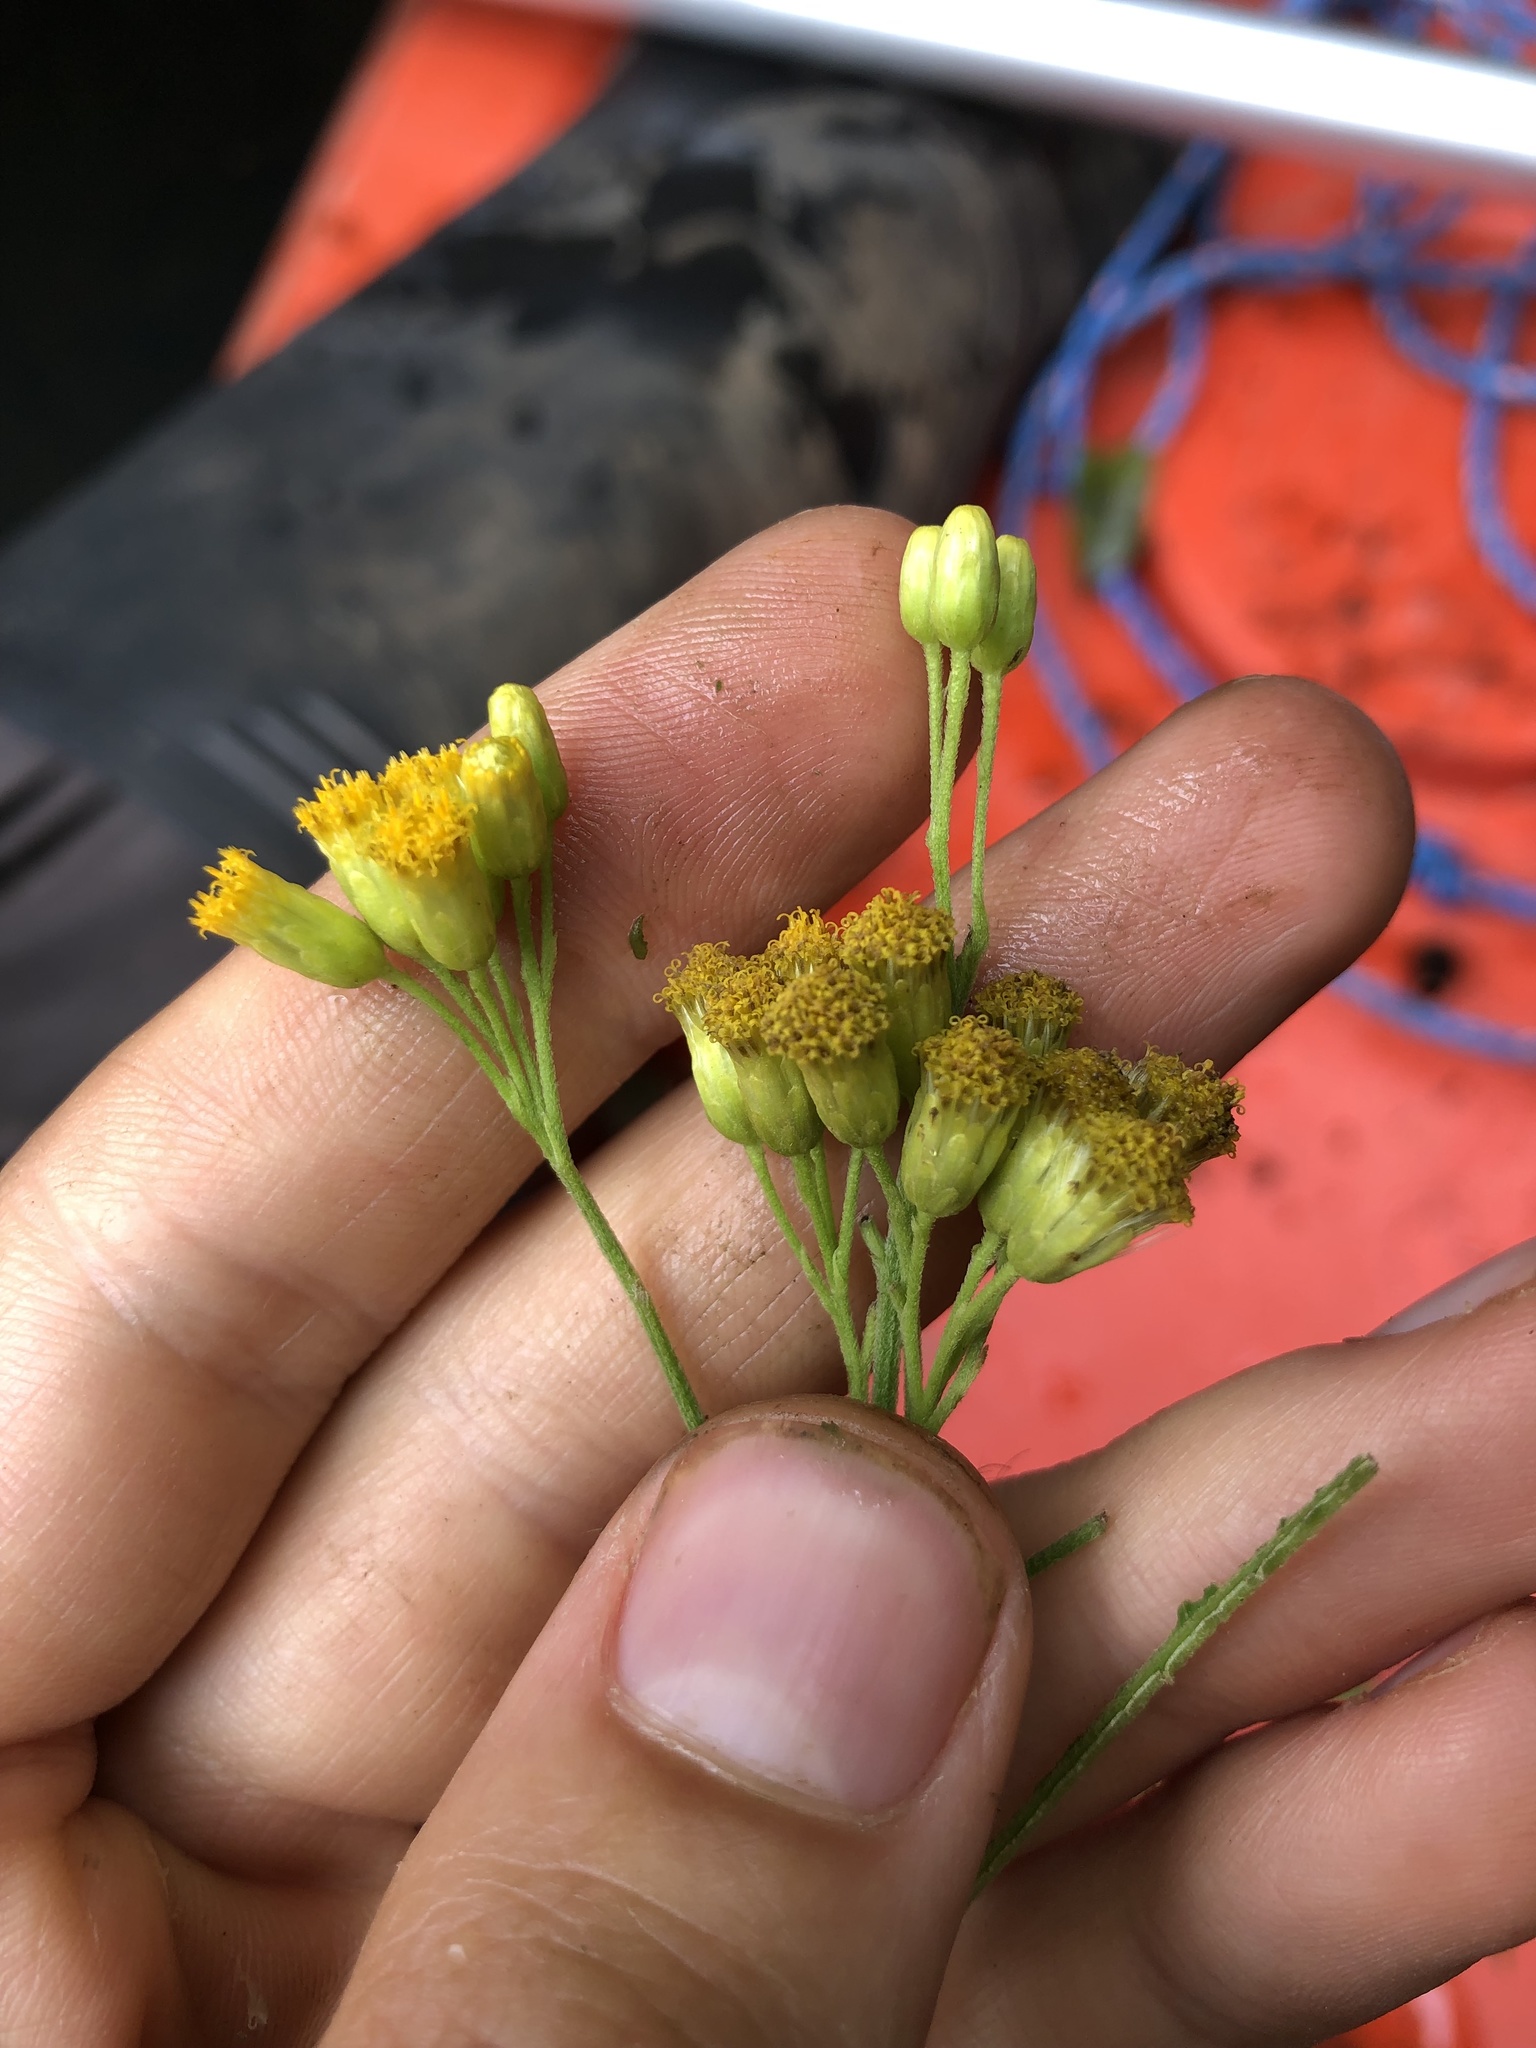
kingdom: Plantae
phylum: Tracheophyta
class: Magnoliopsida
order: Asterales
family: Asteraceae
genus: Neurolaena
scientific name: Neurolaena lobata
